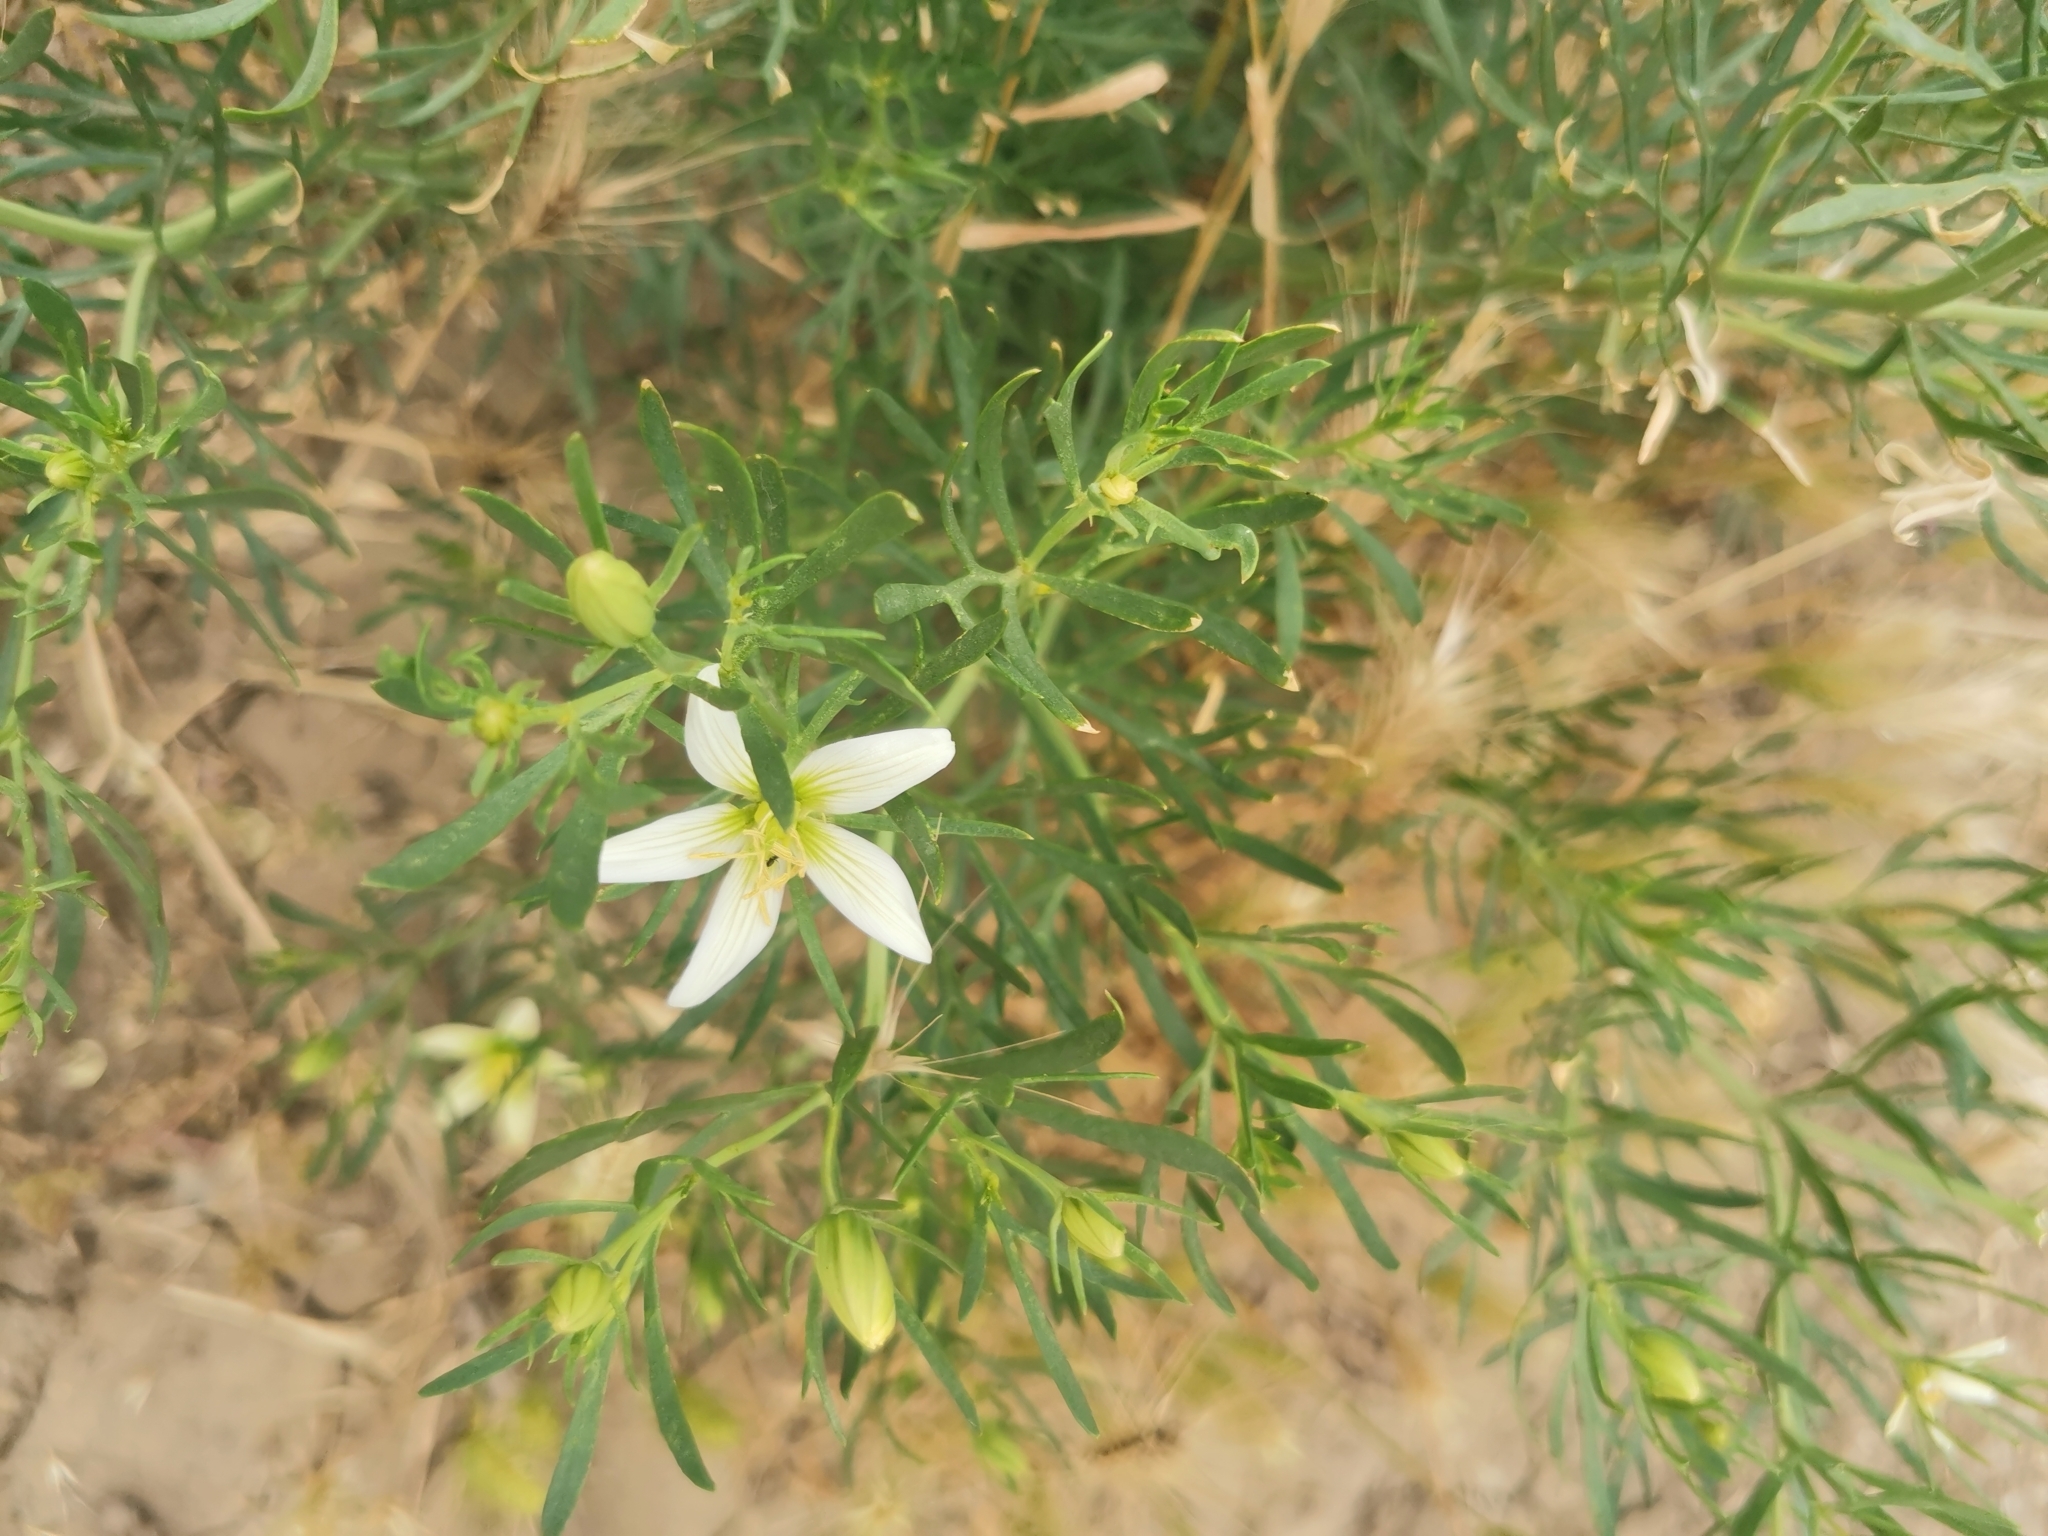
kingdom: Plantae
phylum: Tracheophyta
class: Magnoliopsida
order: Sapindales
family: Tetradiclidaceae
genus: Peganum
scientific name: Peganum harmala
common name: Harmal peganum
